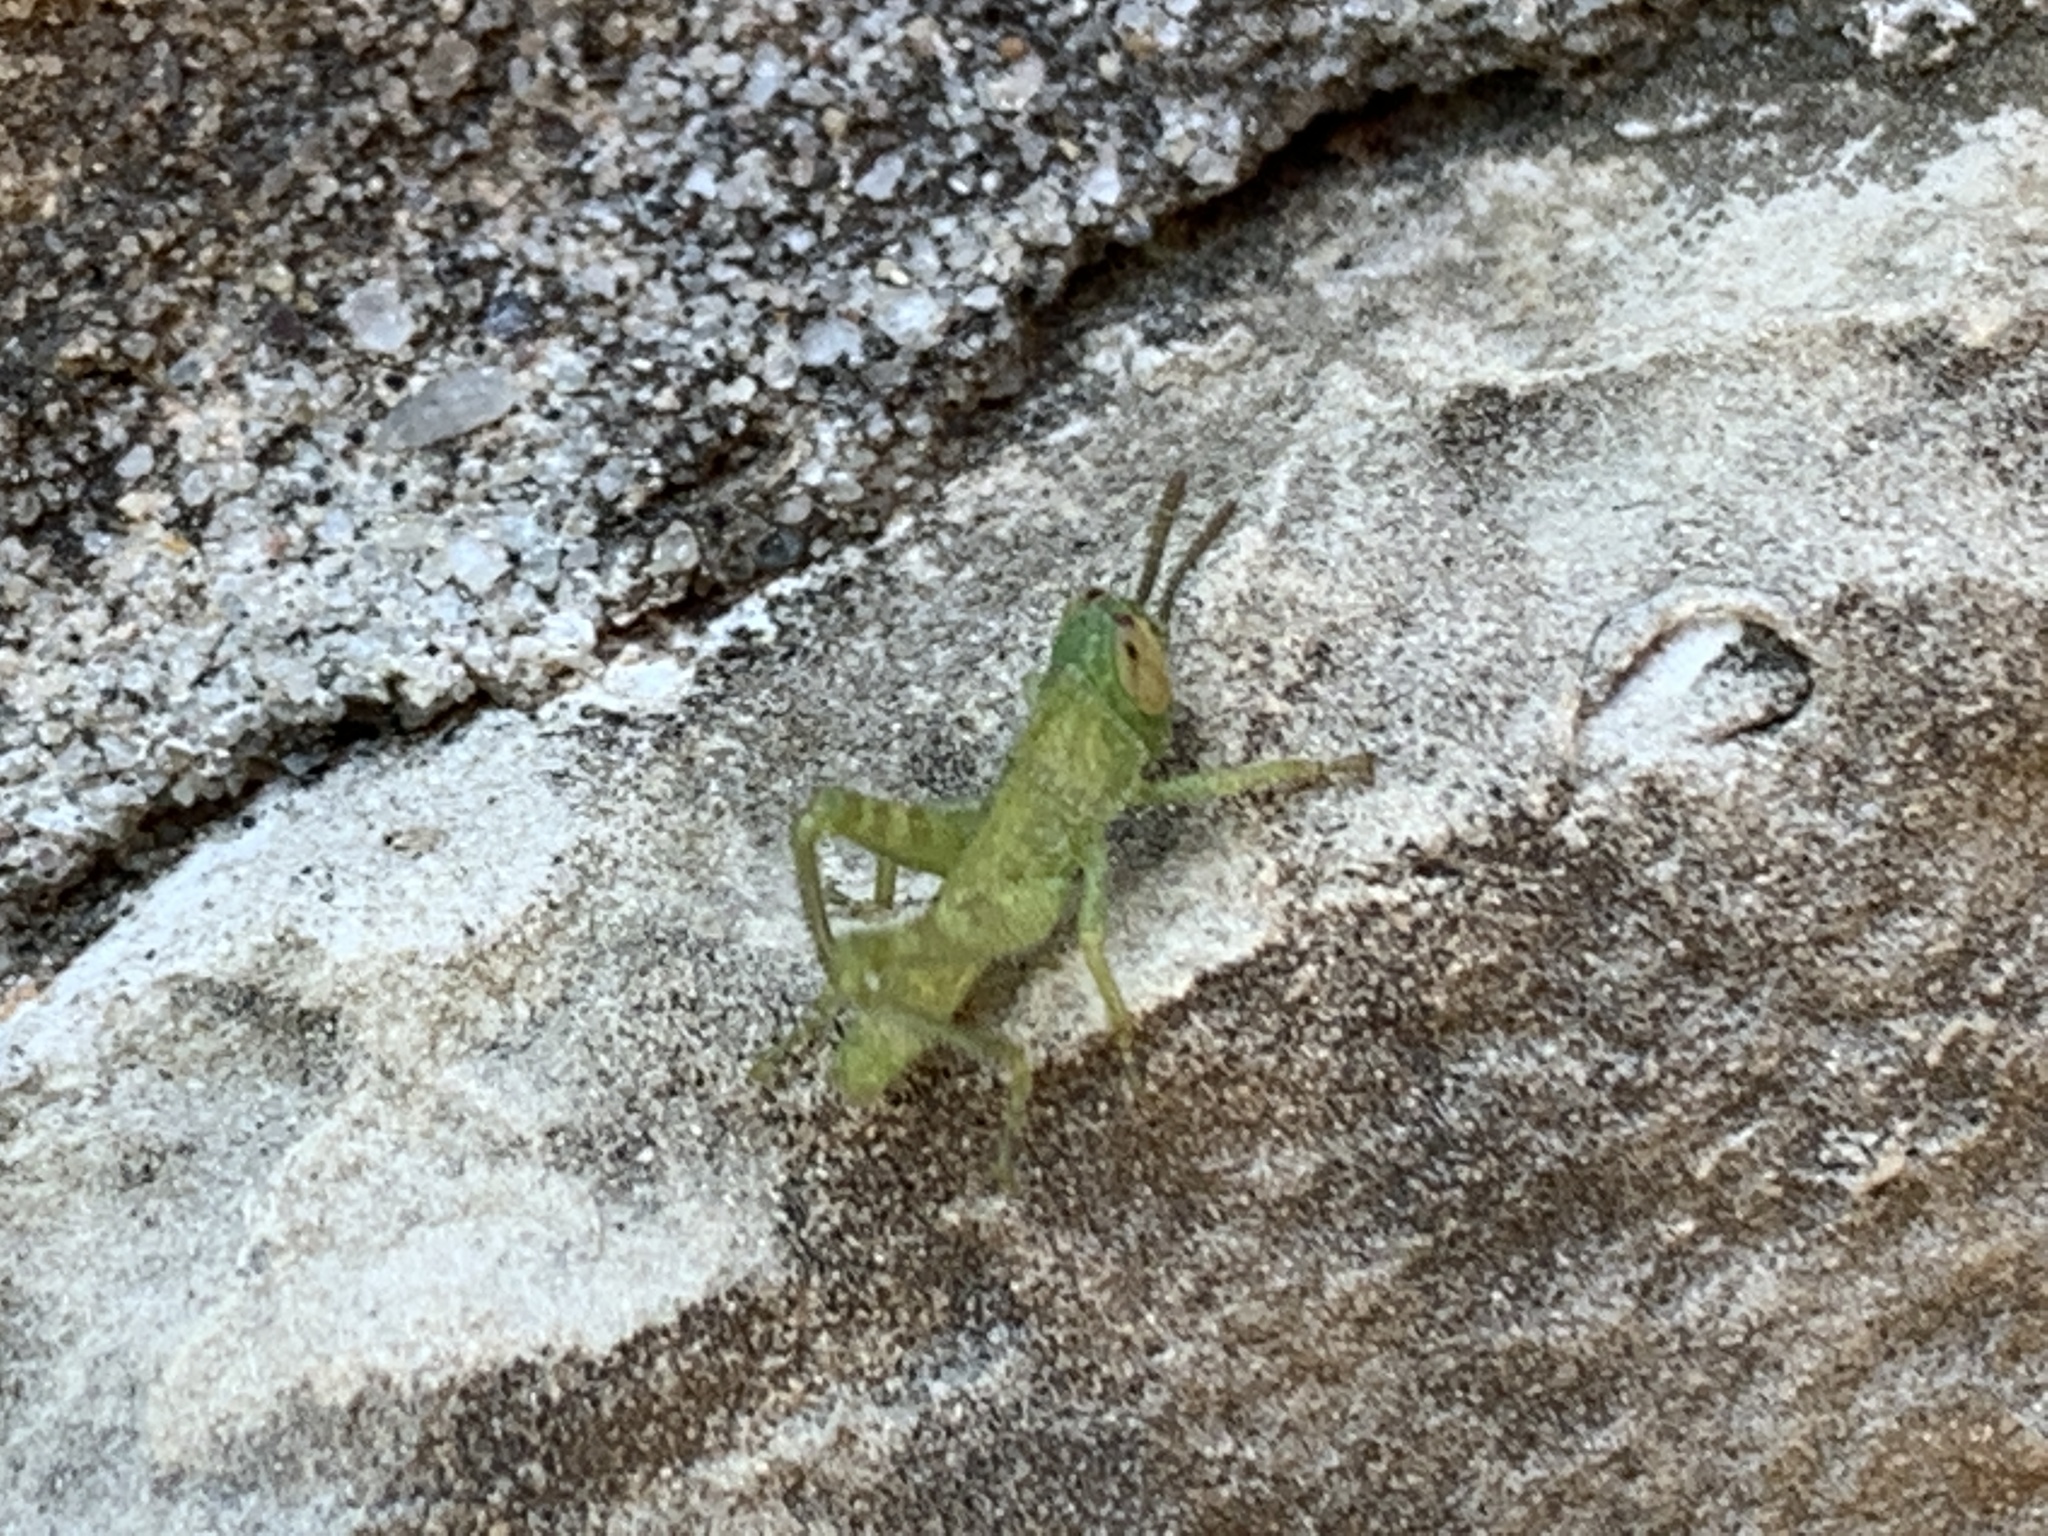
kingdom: Animalia
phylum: Arthropoda
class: Insecta
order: Orthoptera
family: Acrididae
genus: Schistocerca
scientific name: Schistocerca obscura
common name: Obscure bird grasshopper
